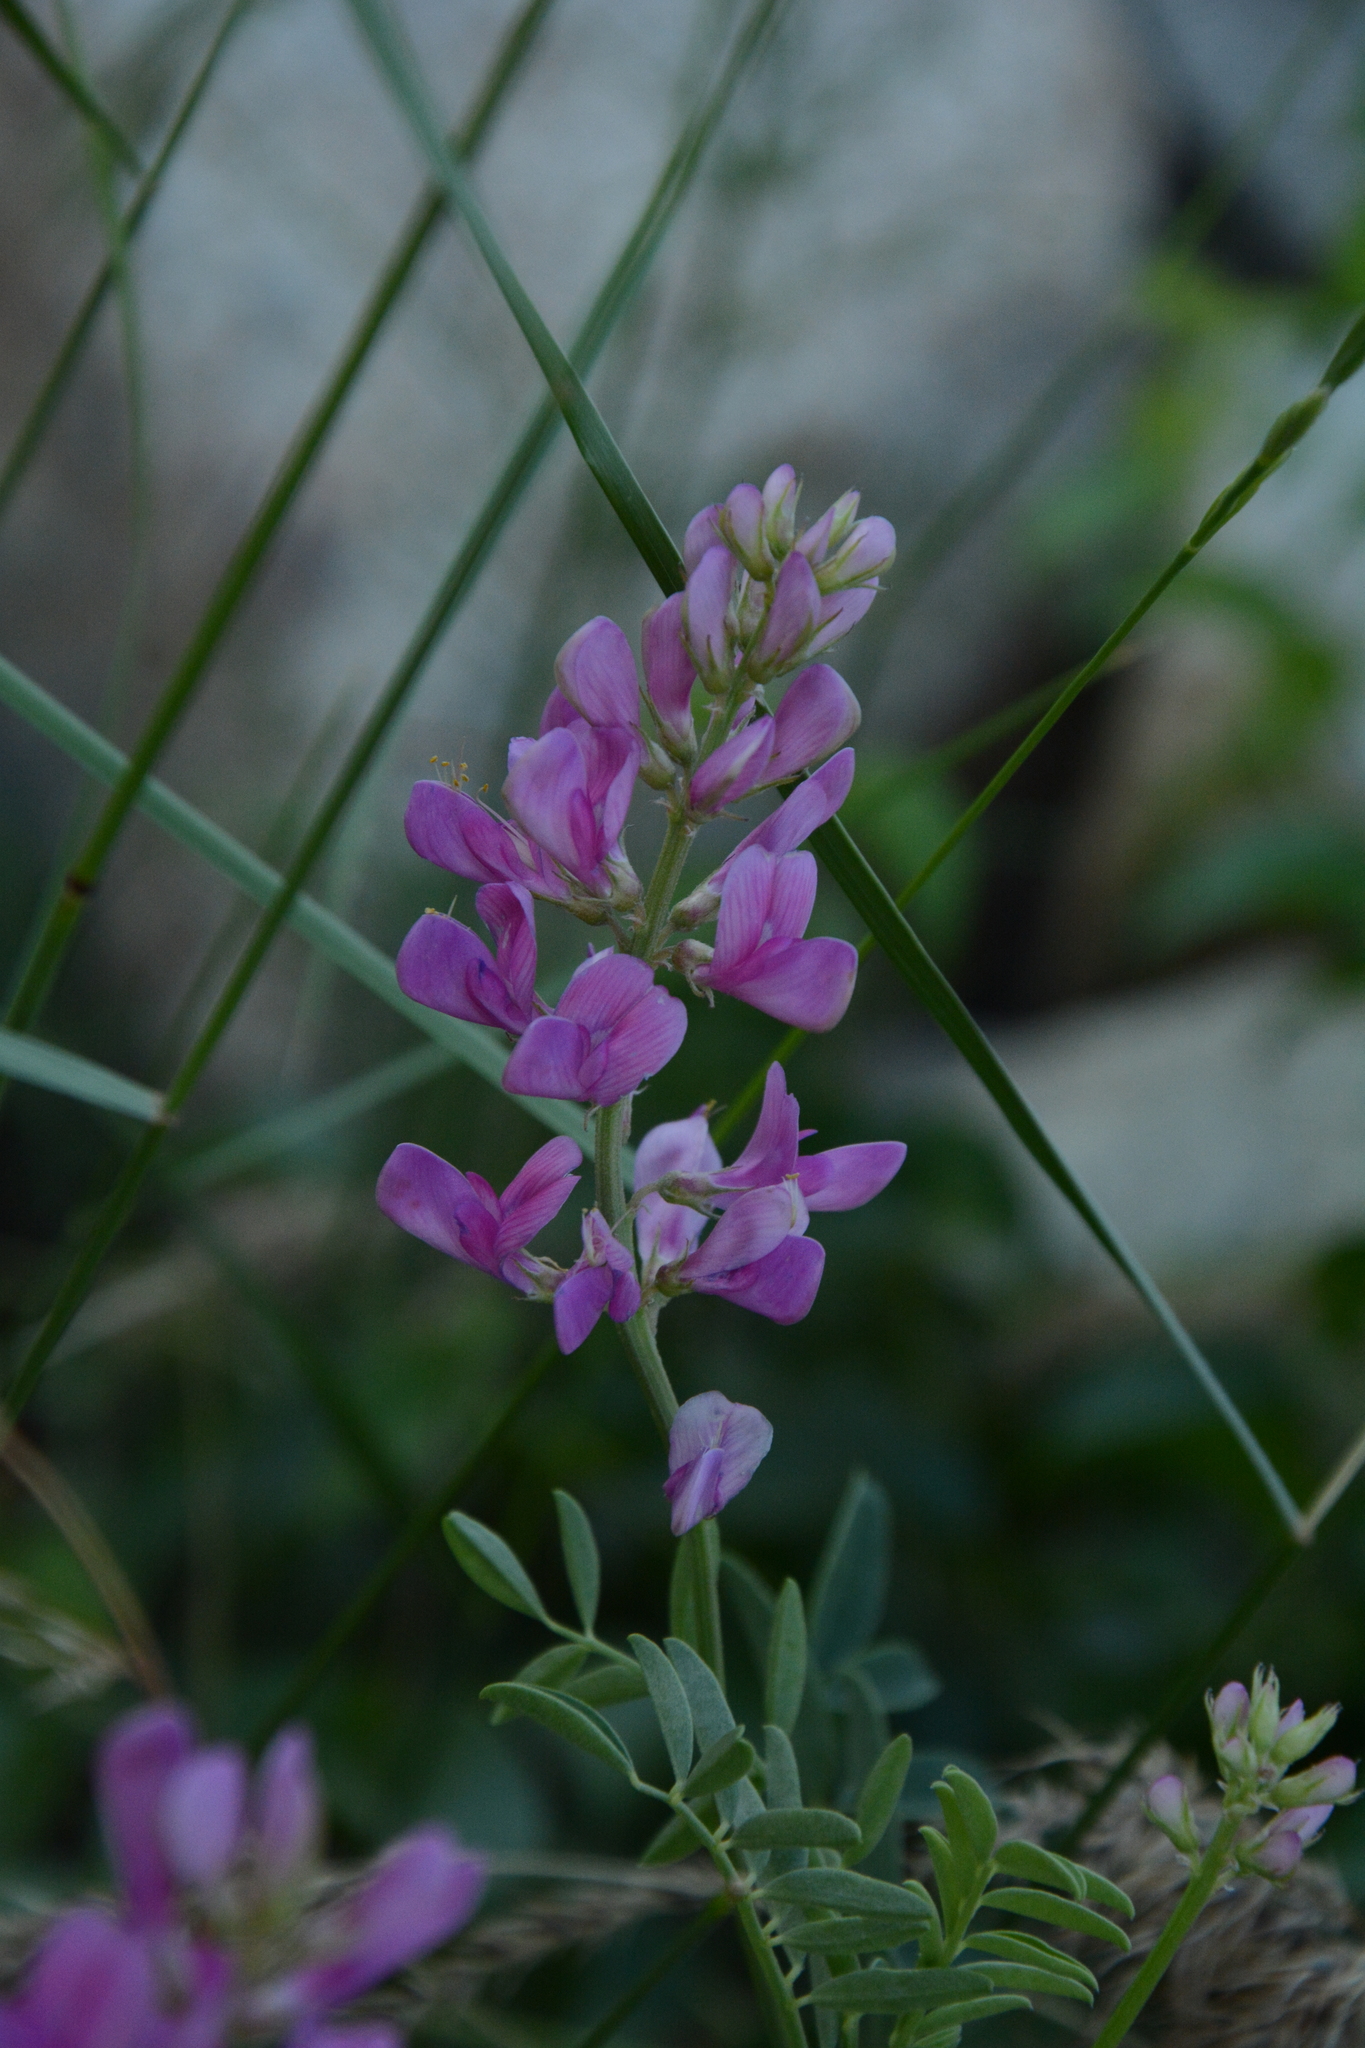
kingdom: Plantae
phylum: Tracheophyta
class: Magnoliopsida
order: Fabales
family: Fabaceae
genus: Hedysarum
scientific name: Hedysarum boreale
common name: Northern sweet-vetch
